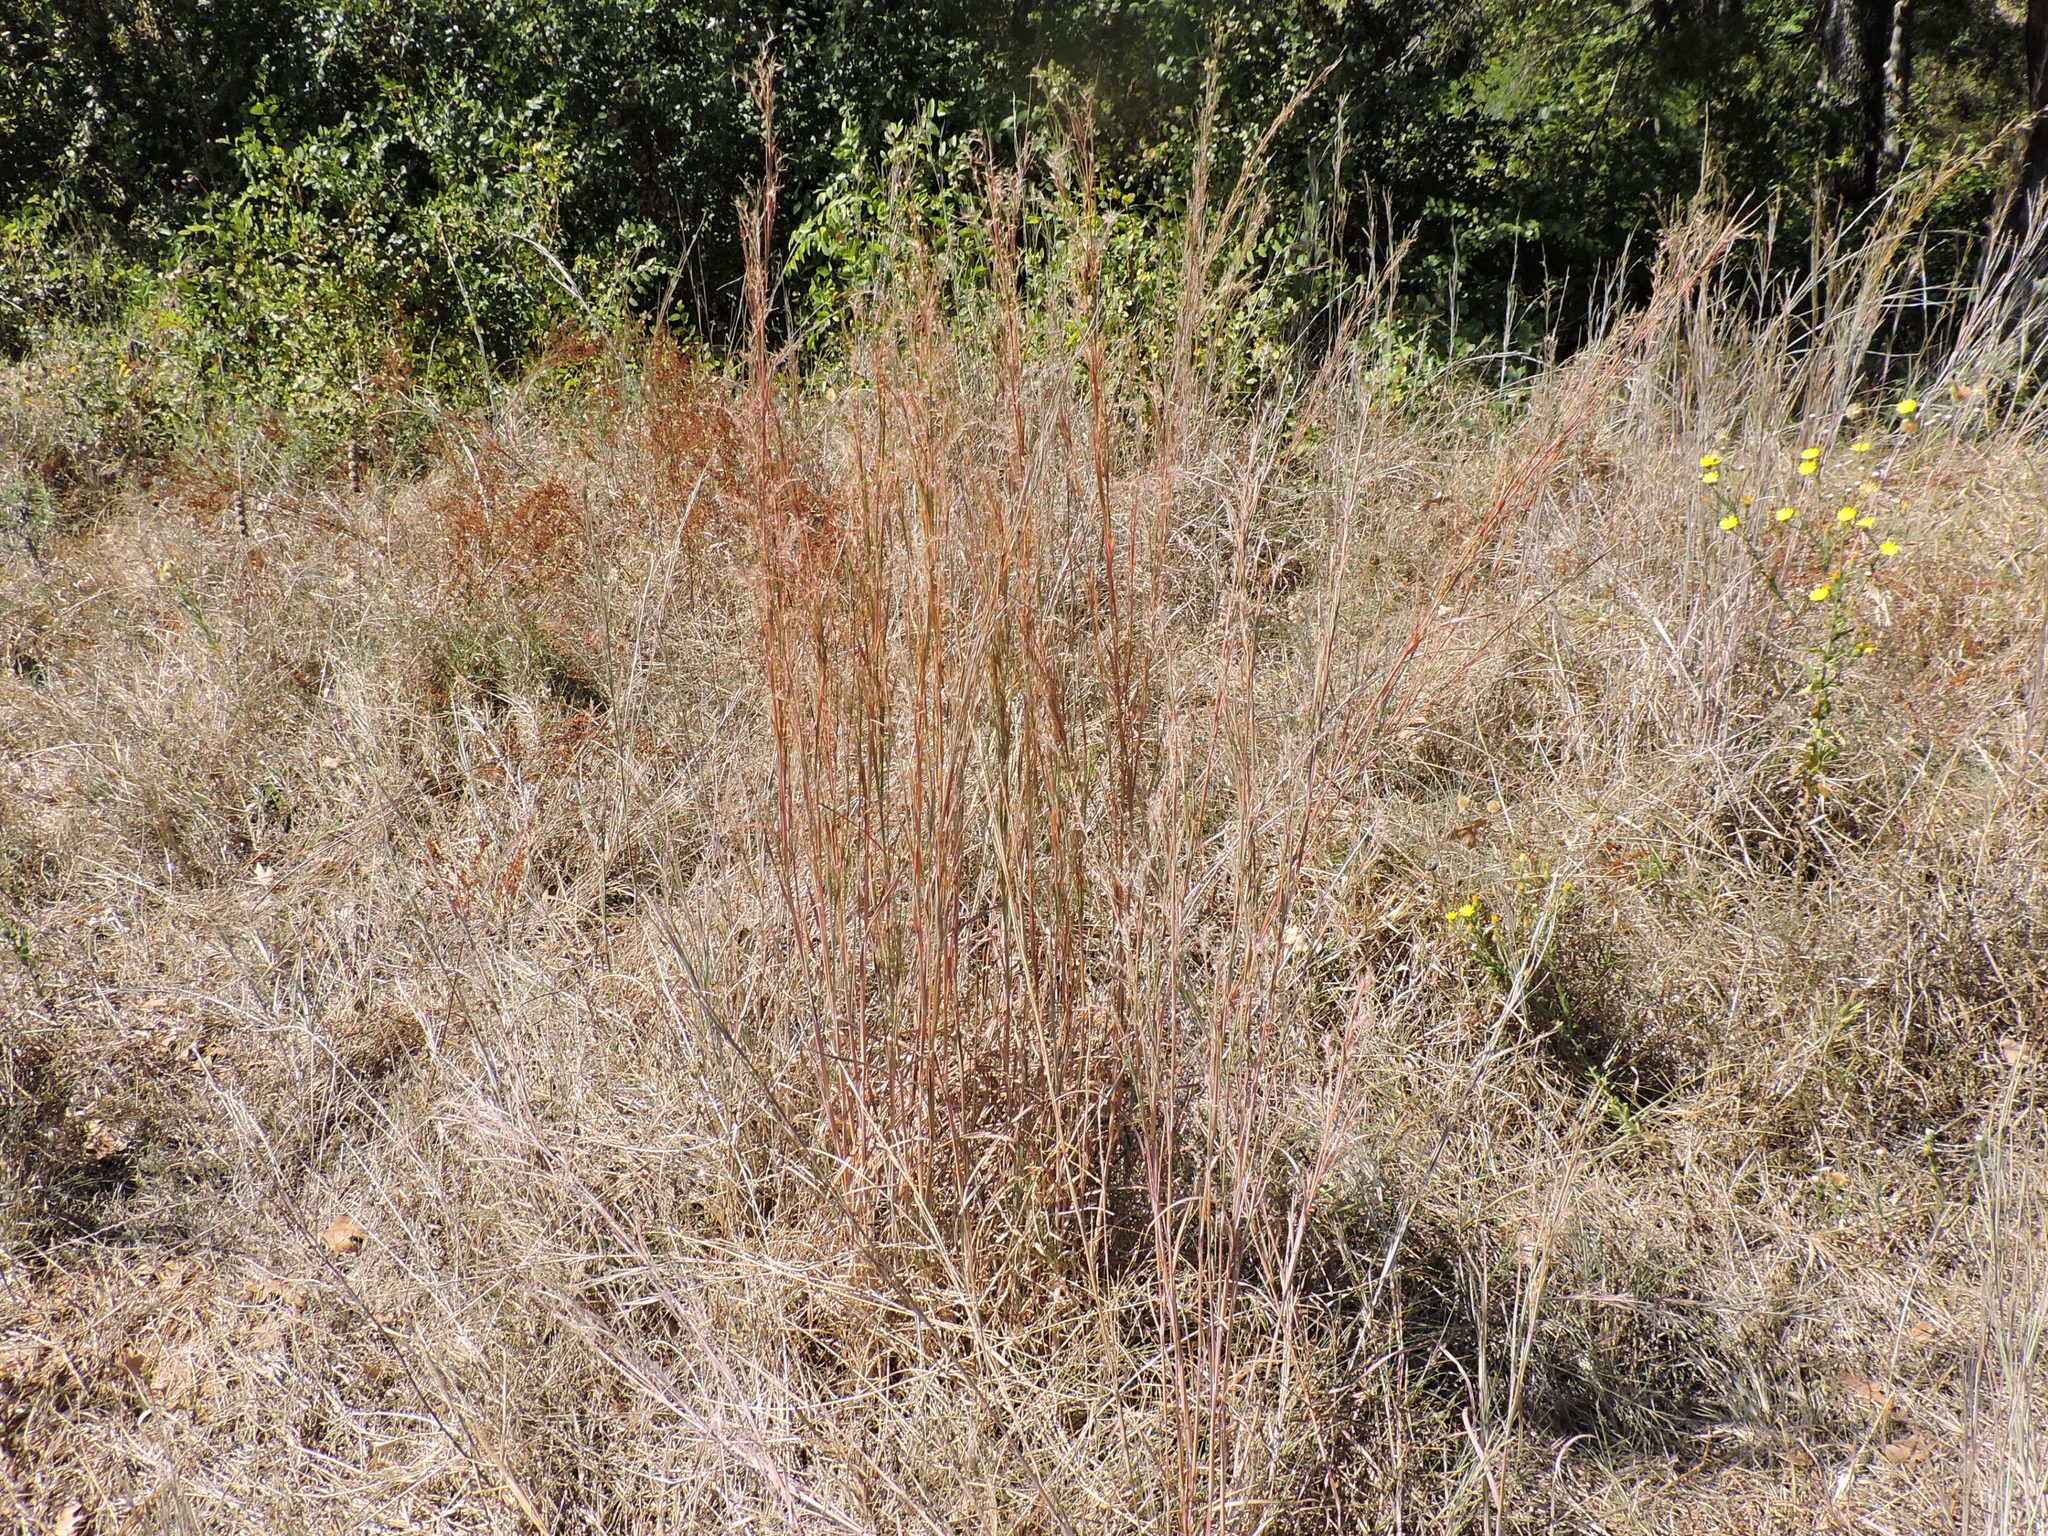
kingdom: Plantae
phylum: Tracheophyta
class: Liliopsida
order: Poales
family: Poaceae
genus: Schizachyrium
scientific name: Schizachyrium scoparium
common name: Little bluestem
